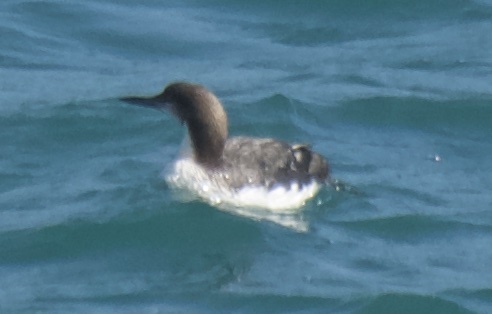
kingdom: Animalia
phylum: Chordata
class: Aves
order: Gaviiformes
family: Gaviidae
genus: Gavia
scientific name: Gavia pacifica
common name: Pacific loon
